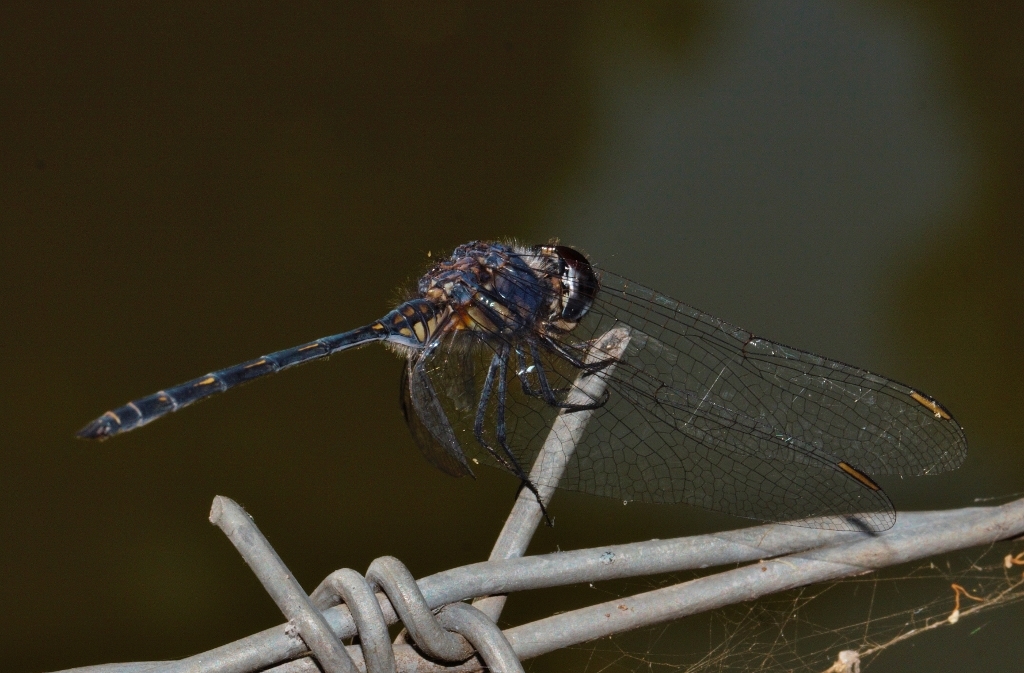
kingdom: Animalia
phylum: Arthropoda
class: Insecta
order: Odonata
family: Libellulidae
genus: Trithemis
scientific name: Trithemis aconita
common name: Halfshade dropwing
